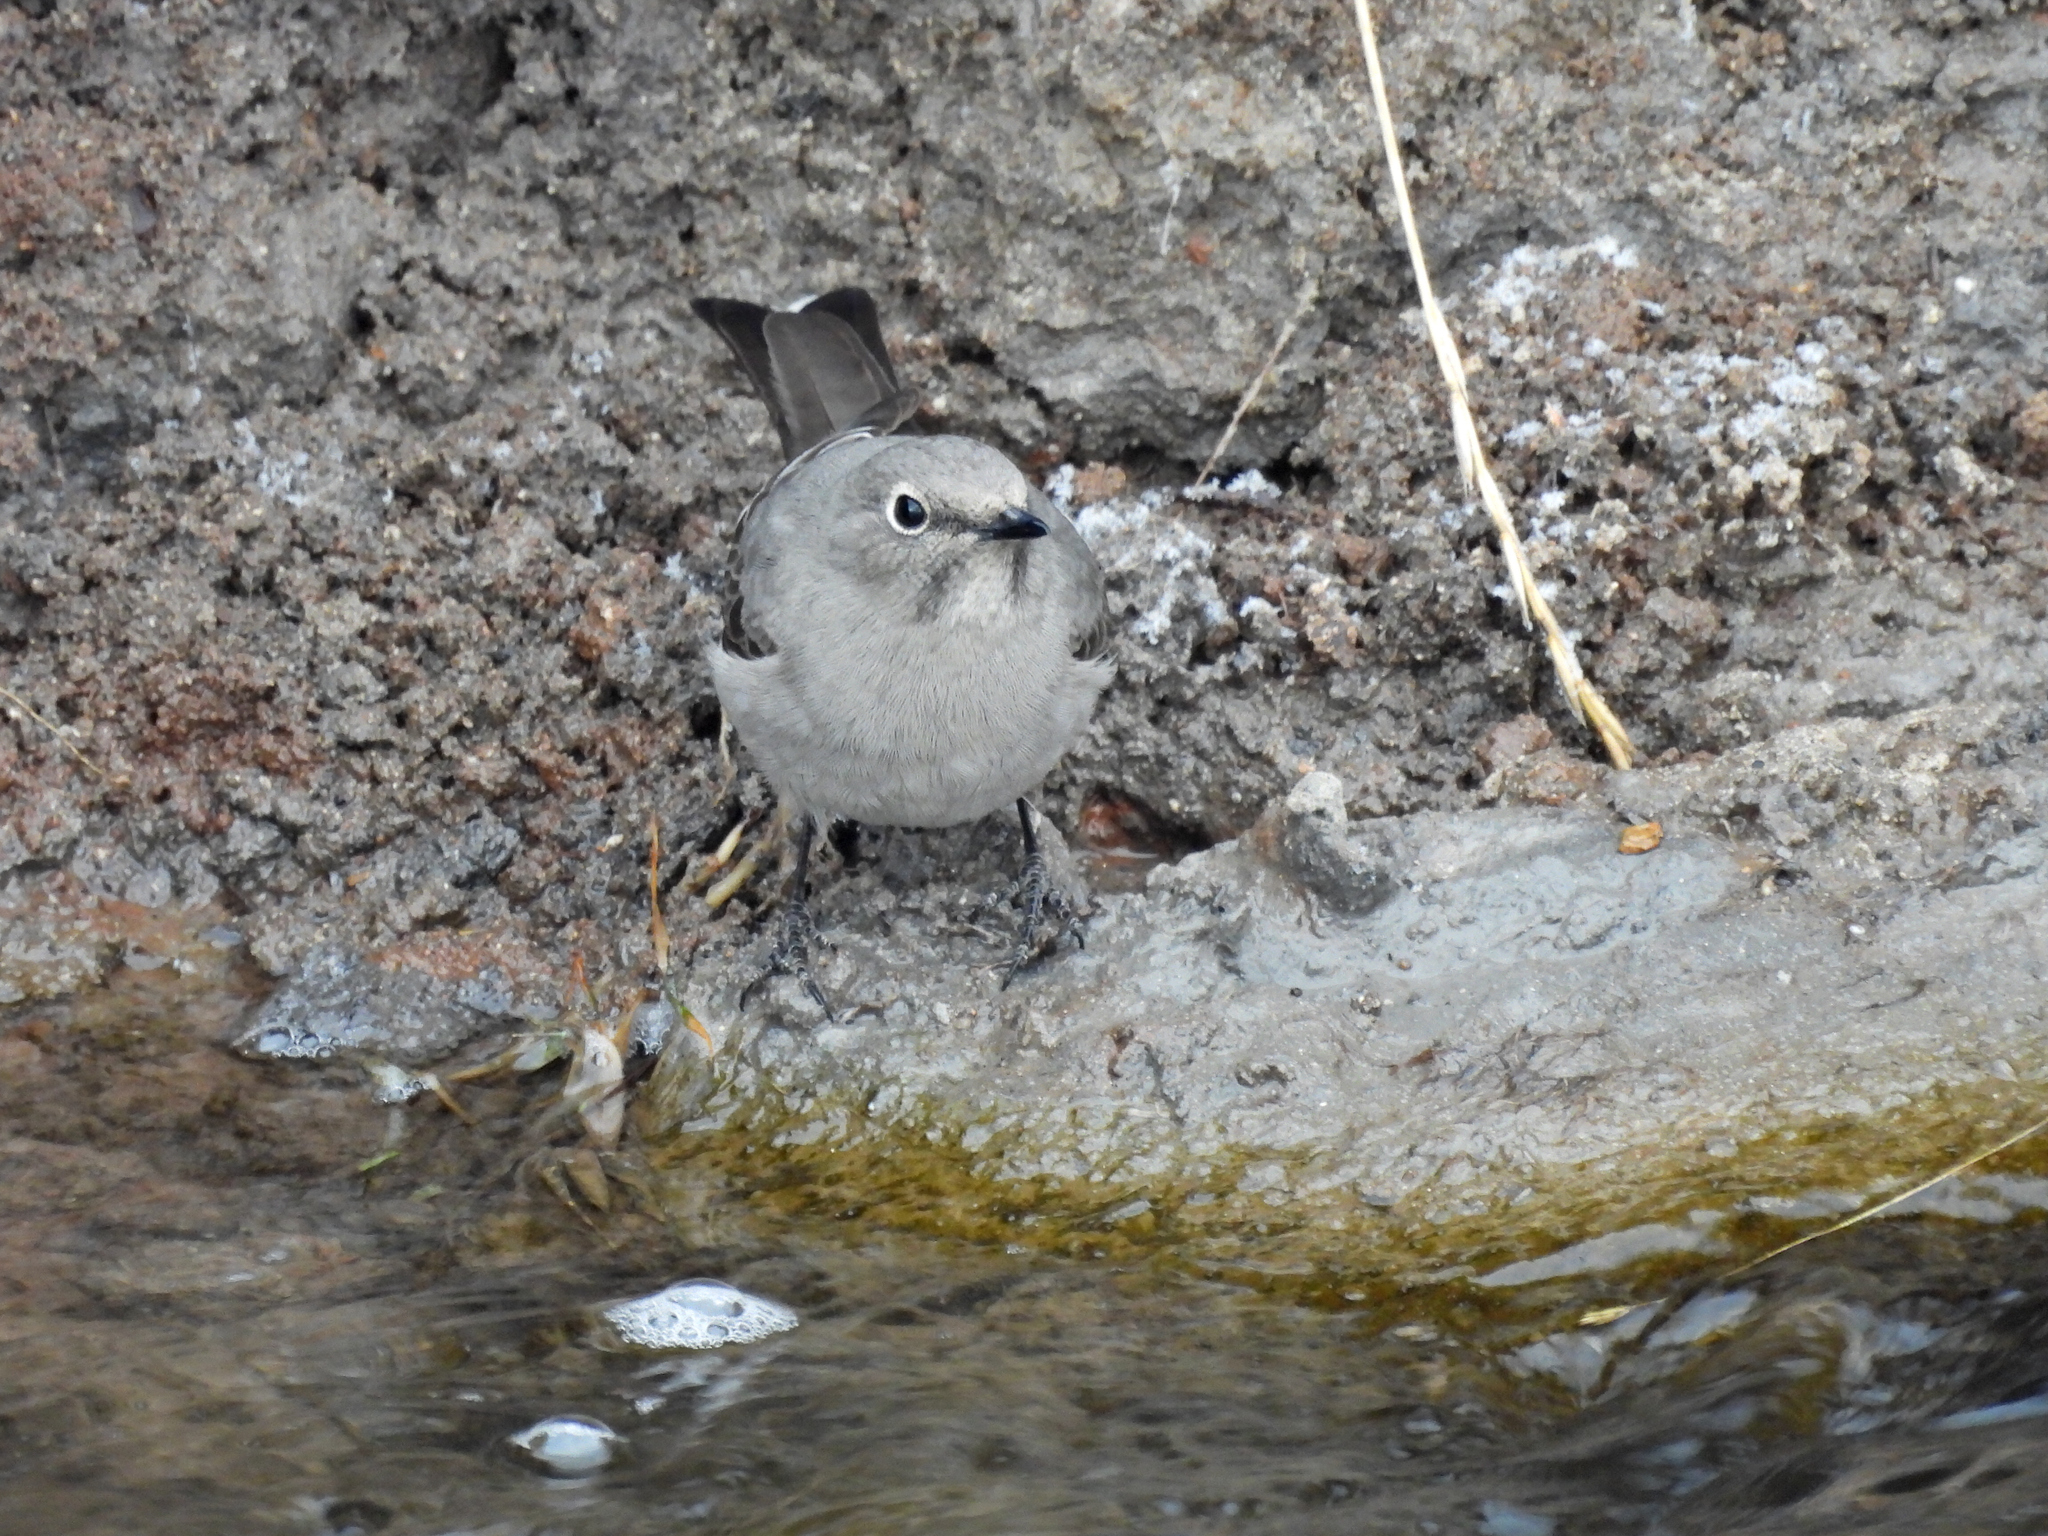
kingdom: Animalia
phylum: Chordata
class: Aves
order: Passeriformes
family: Turdidae
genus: Myadestes
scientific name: Myadestes townsendi
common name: Townsend's solitaire
